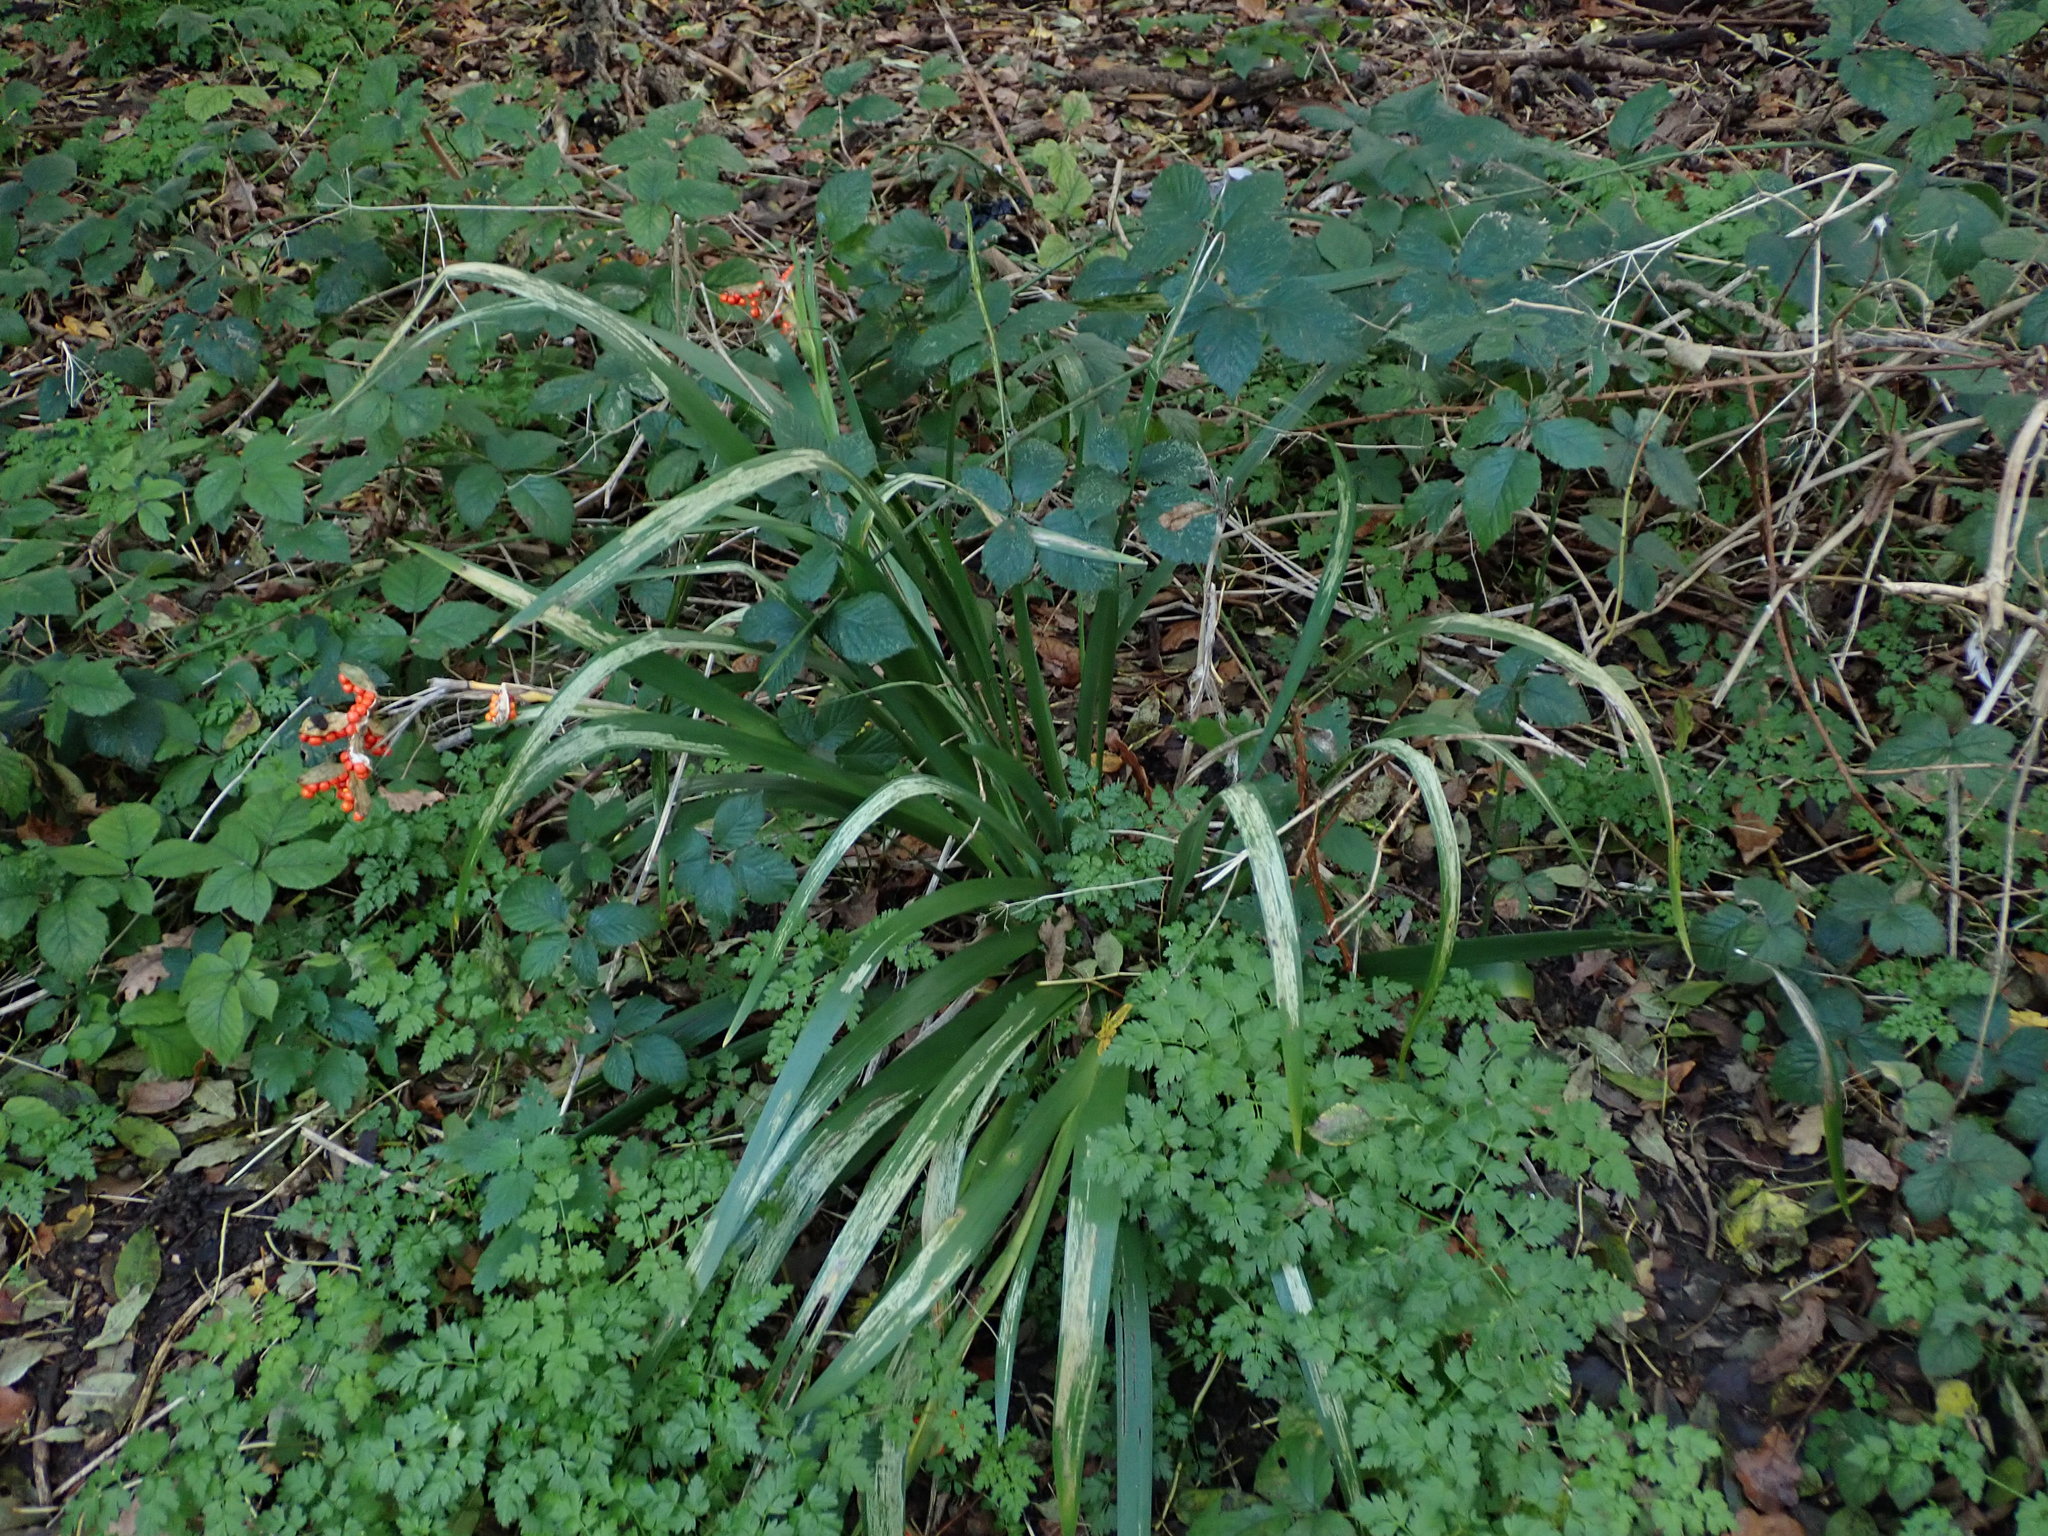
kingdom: Plantae
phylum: Tracheophyta
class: Liliopsida
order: Asparagales
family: Iridaceae
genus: Iris
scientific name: Iris foetidissima
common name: Stinking iris
